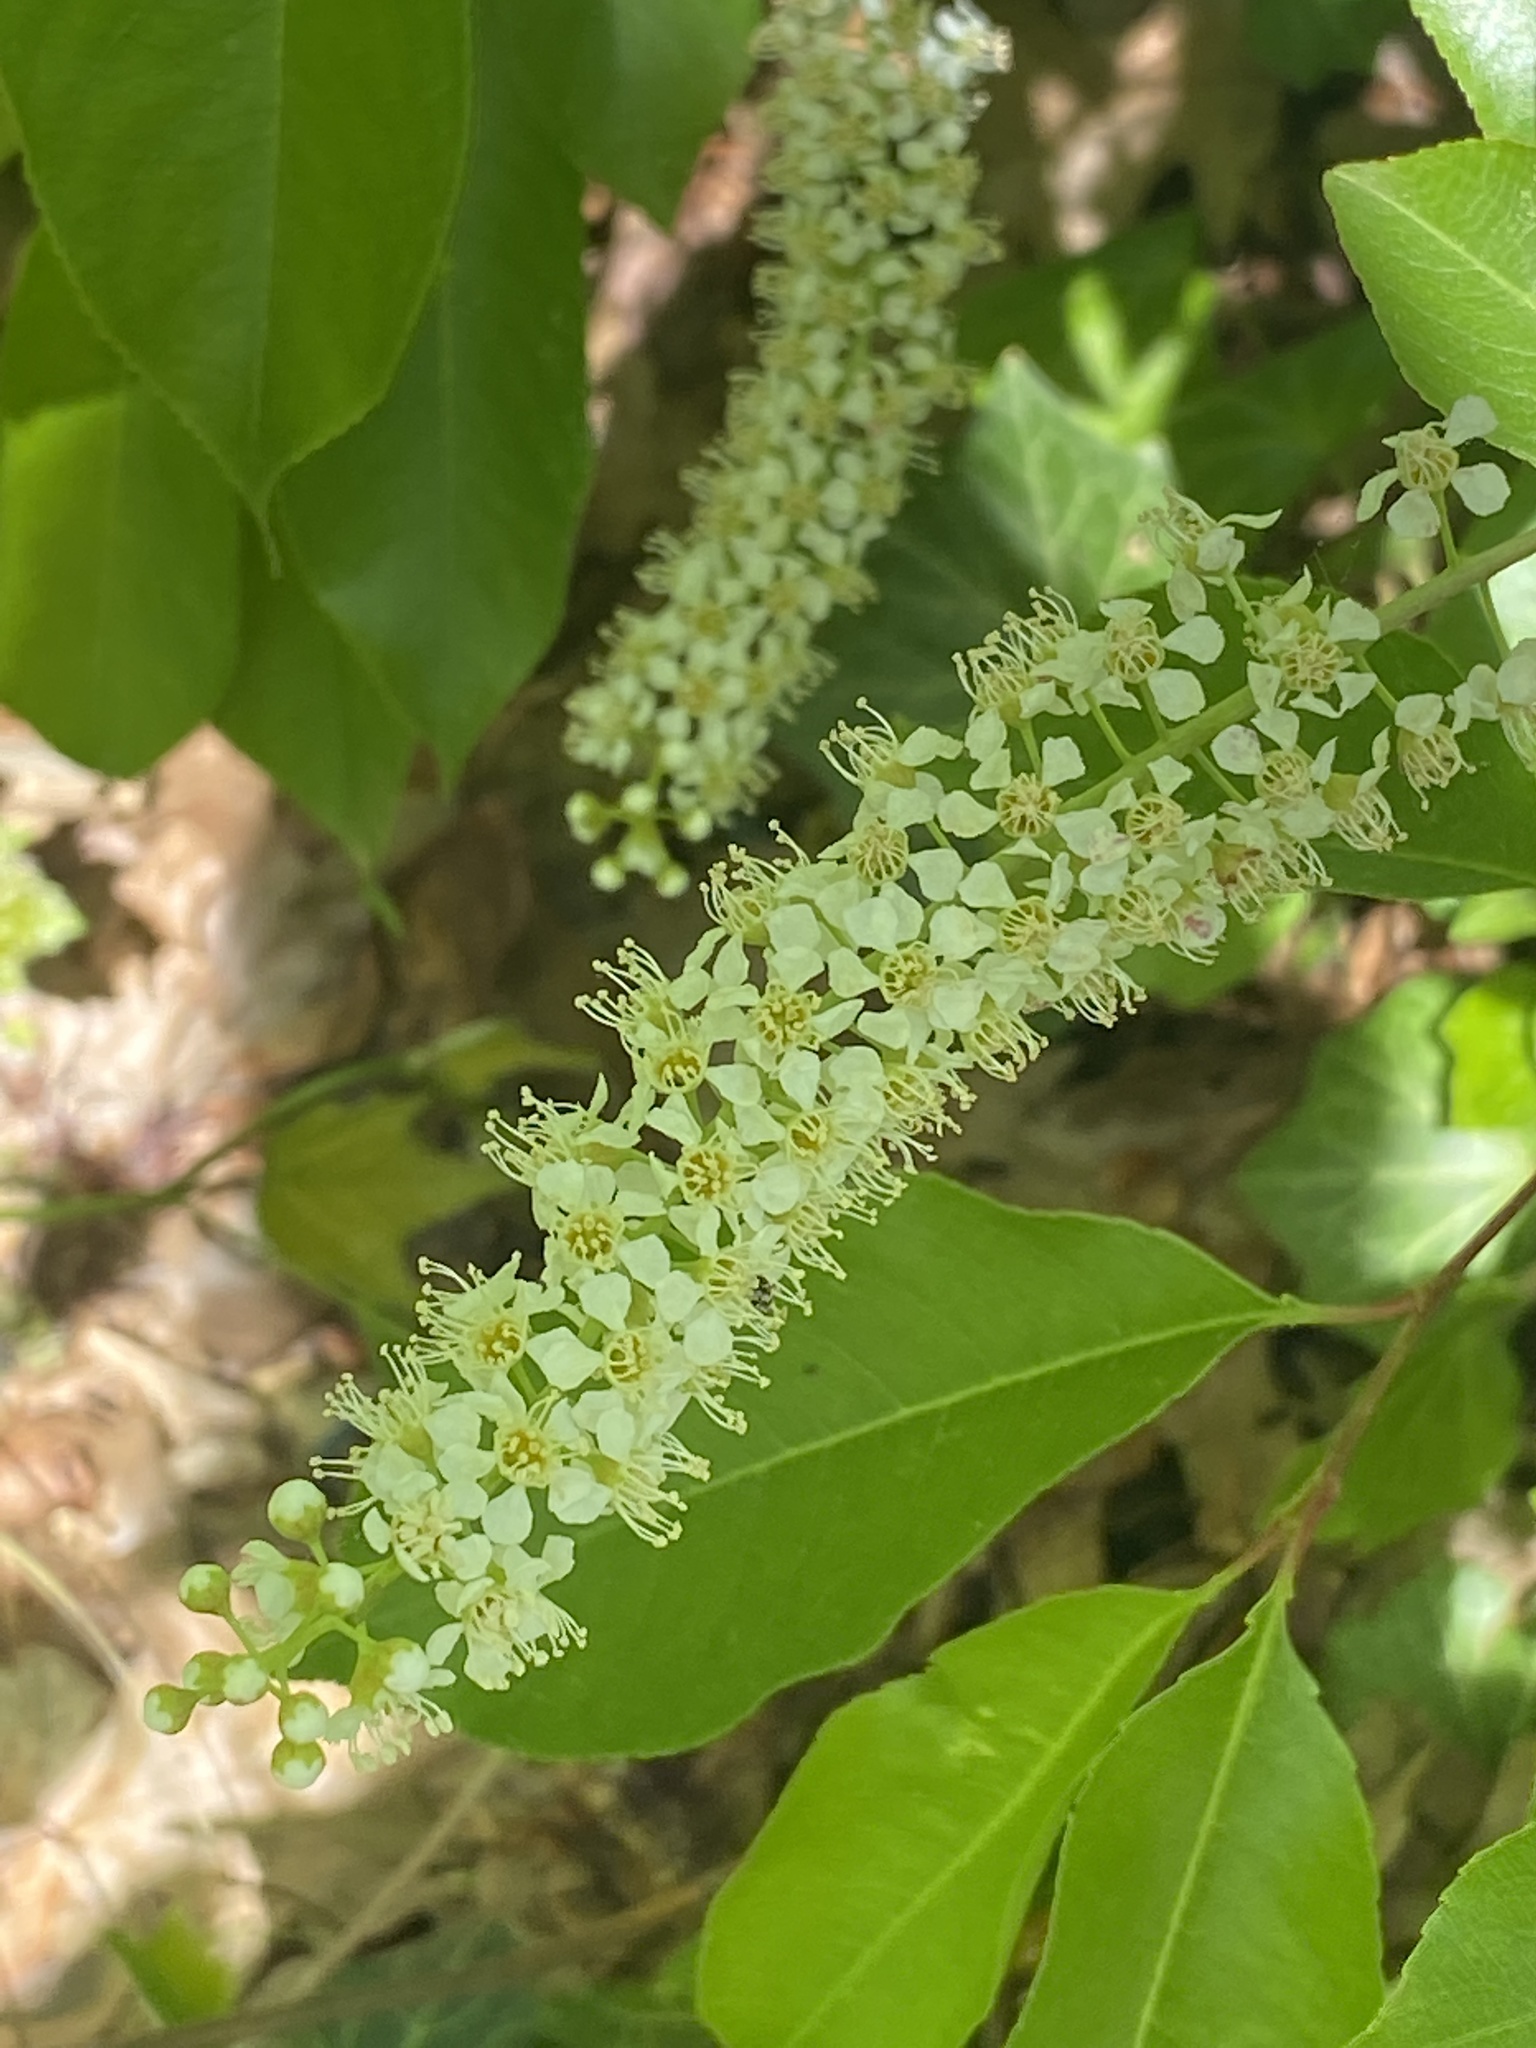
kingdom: Plantae
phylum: Tracheophyta
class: Magnoliopsida
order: Rosales
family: Rosaceae
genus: Prunus
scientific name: Prunus serotina
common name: Black cherry
